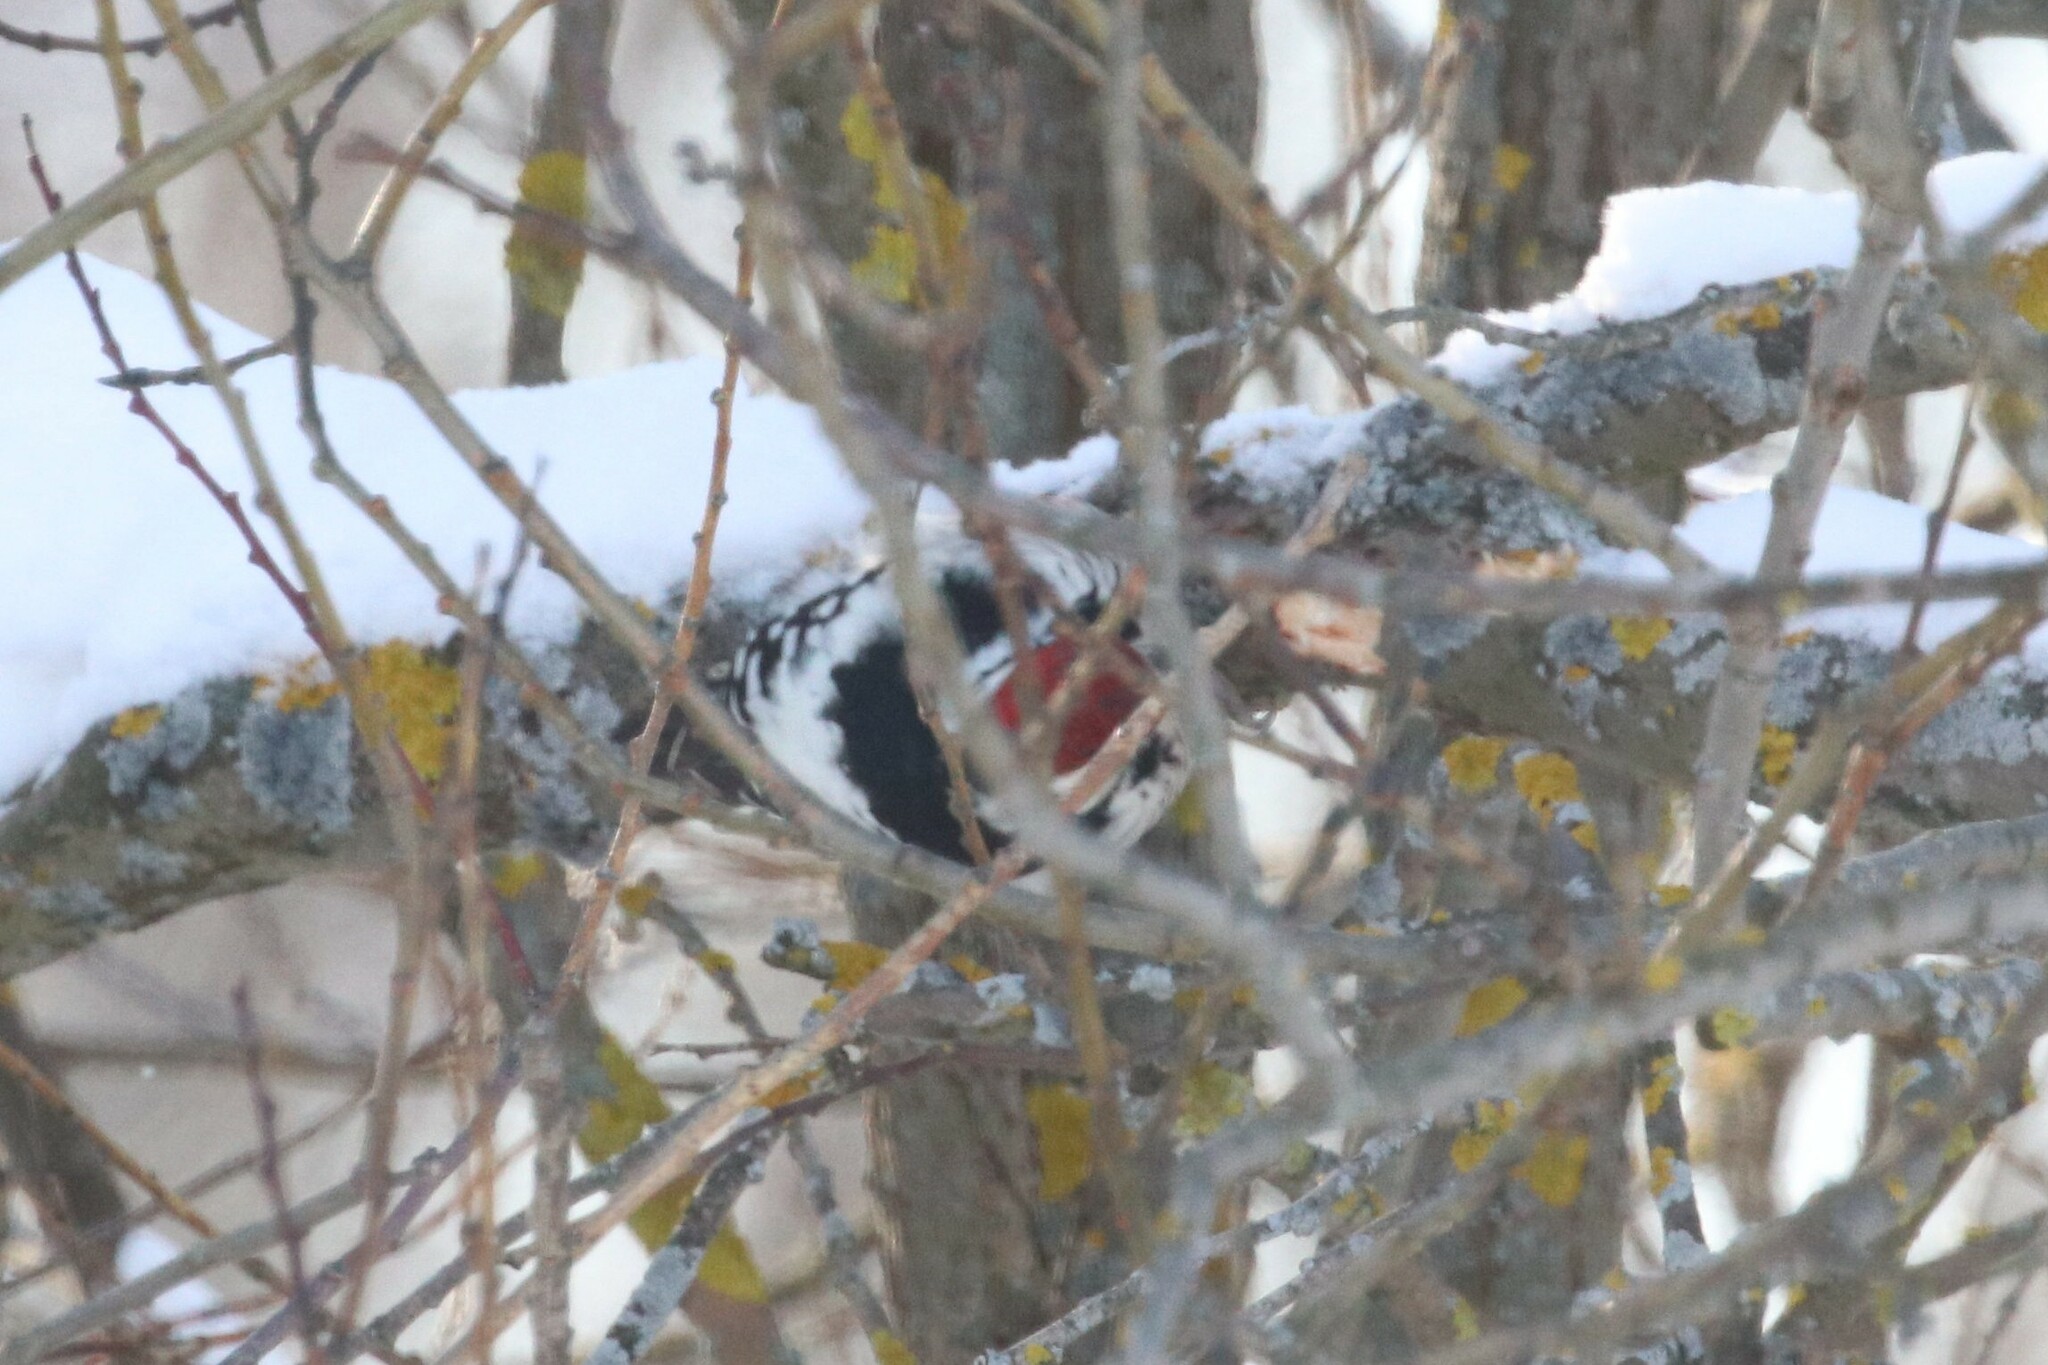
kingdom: Animalia
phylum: Chordata
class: Aves
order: Piciformes
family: Picidae
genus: Dendrocopos
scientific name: Dendrocopos leucotos
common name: White-backed woodpecker
